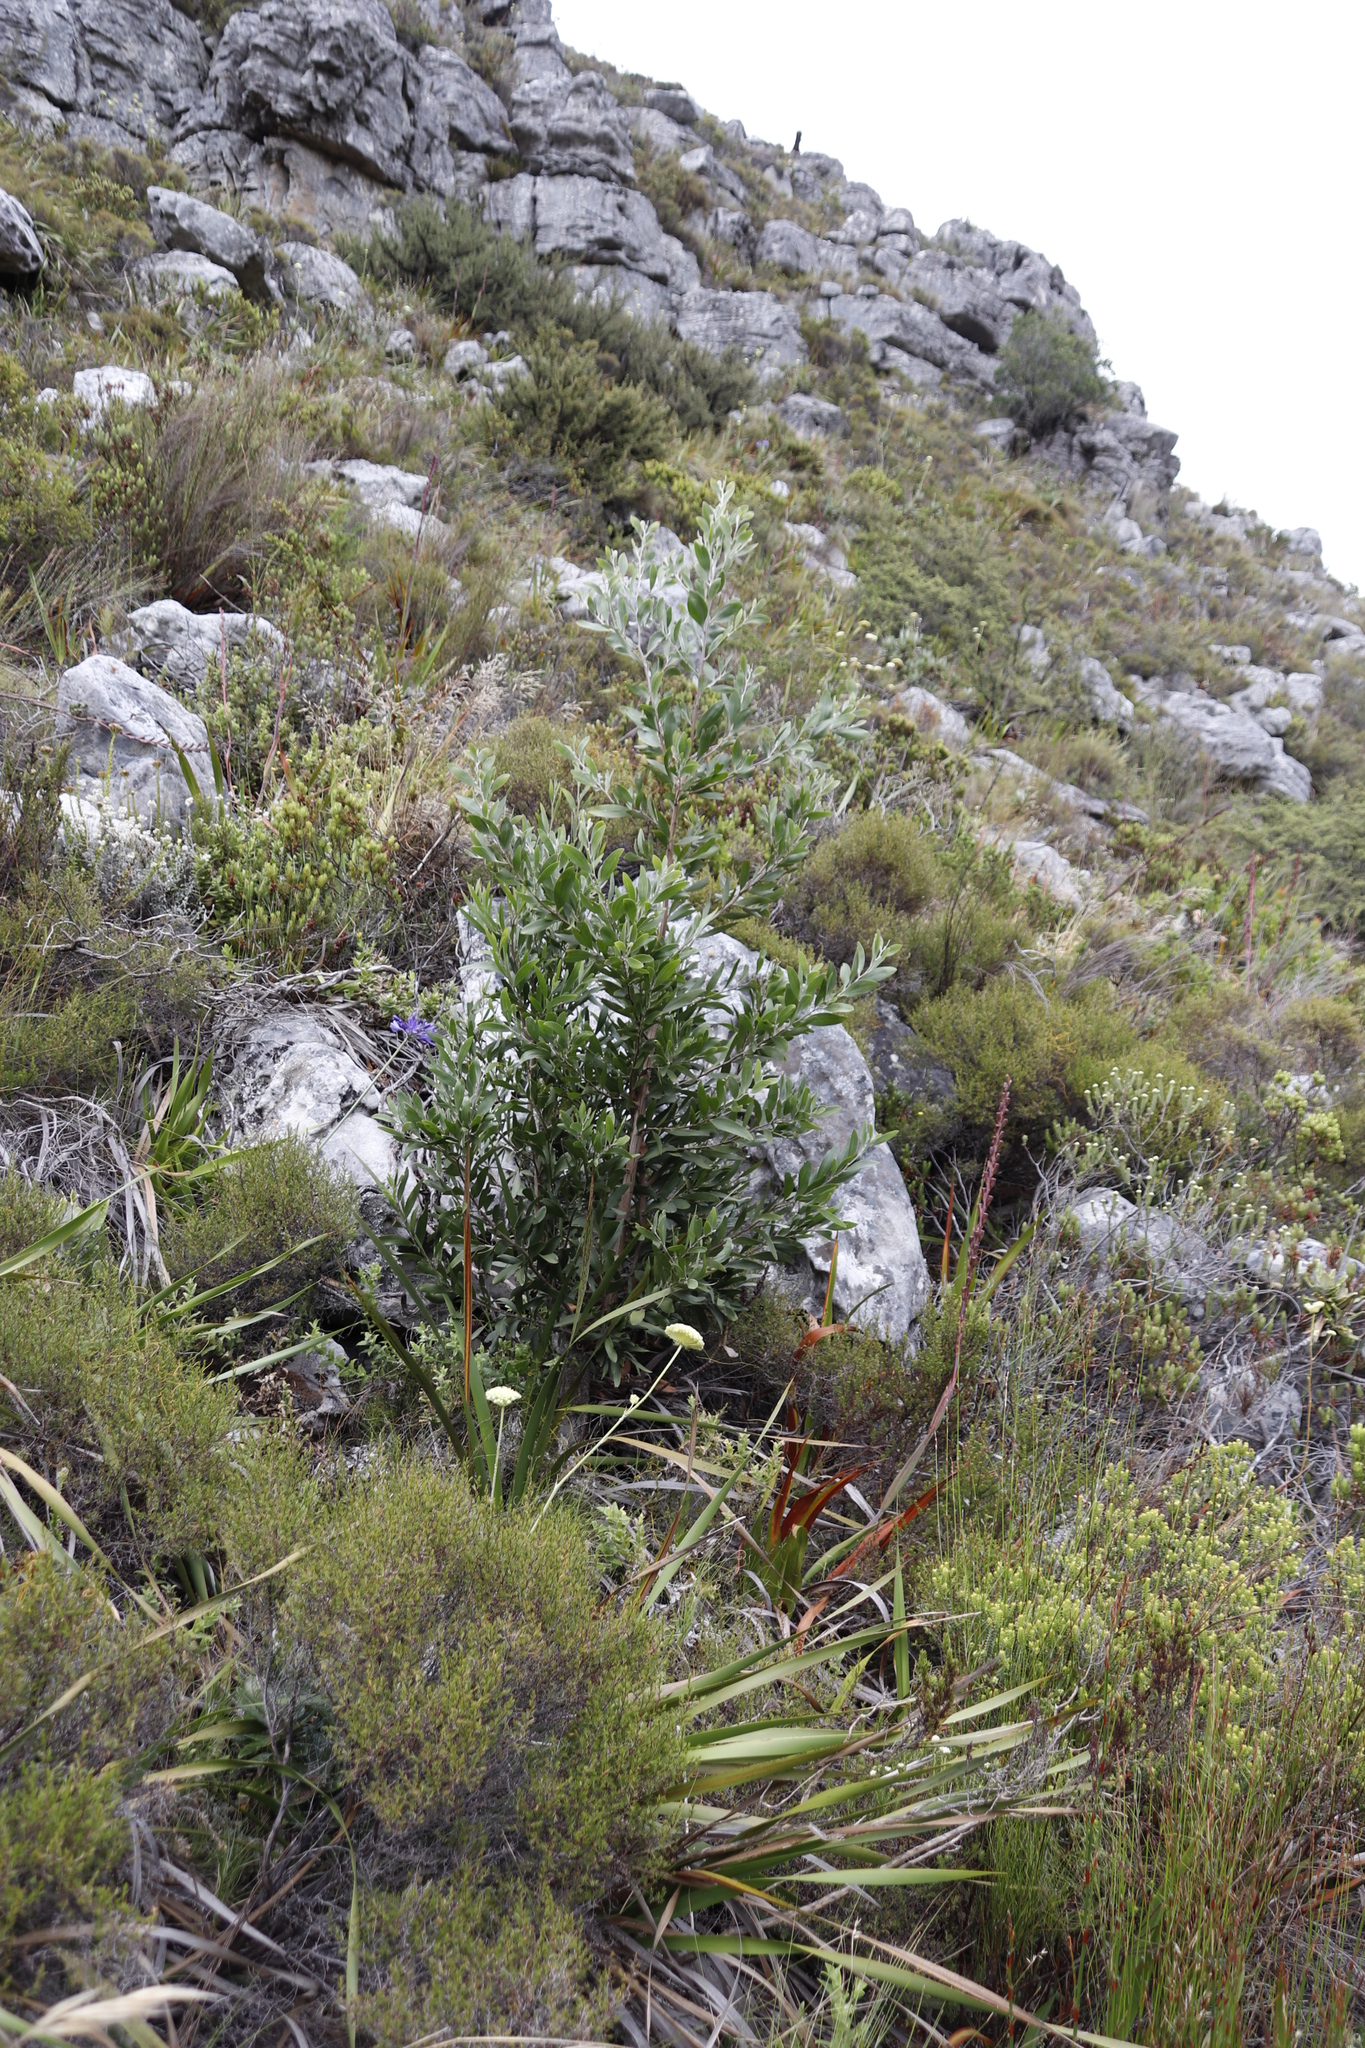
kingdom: Plantae
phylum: Tracheophyta
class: Magnoliopsida
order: Fabales
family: Fabaceae
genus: Acacia
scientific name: Acacia melanoxylon
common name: Blackwood
